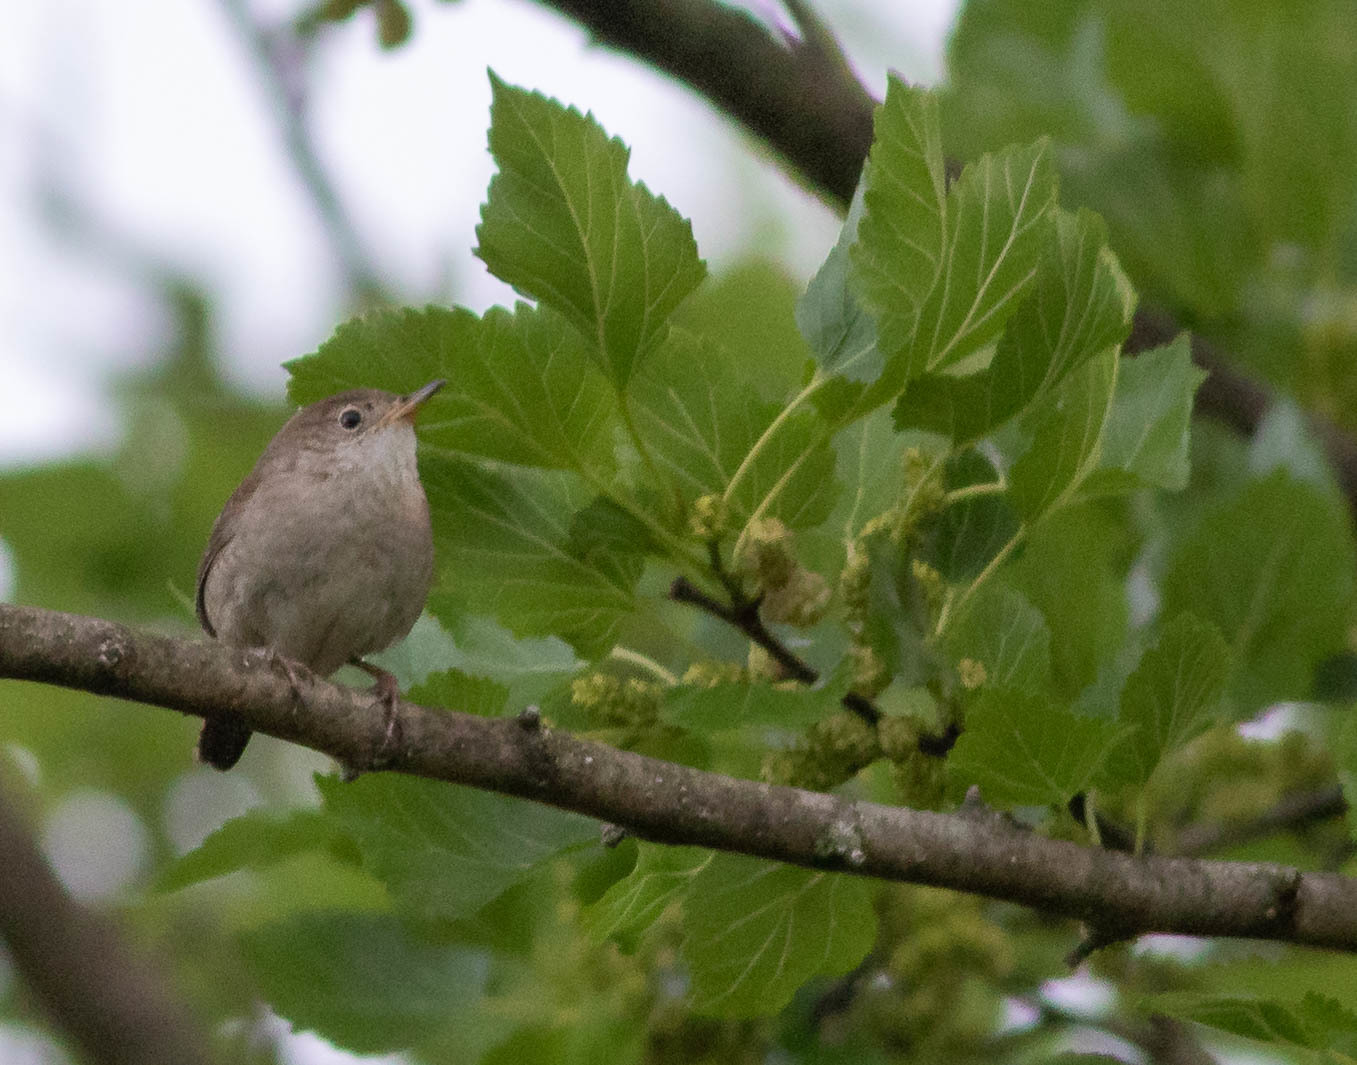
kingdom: Animalia
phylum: Chordata
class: Aves
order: Passeriformes
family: Troglodytidae
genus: Troglodytes
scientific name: Troglodytes aedon
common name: House wren
